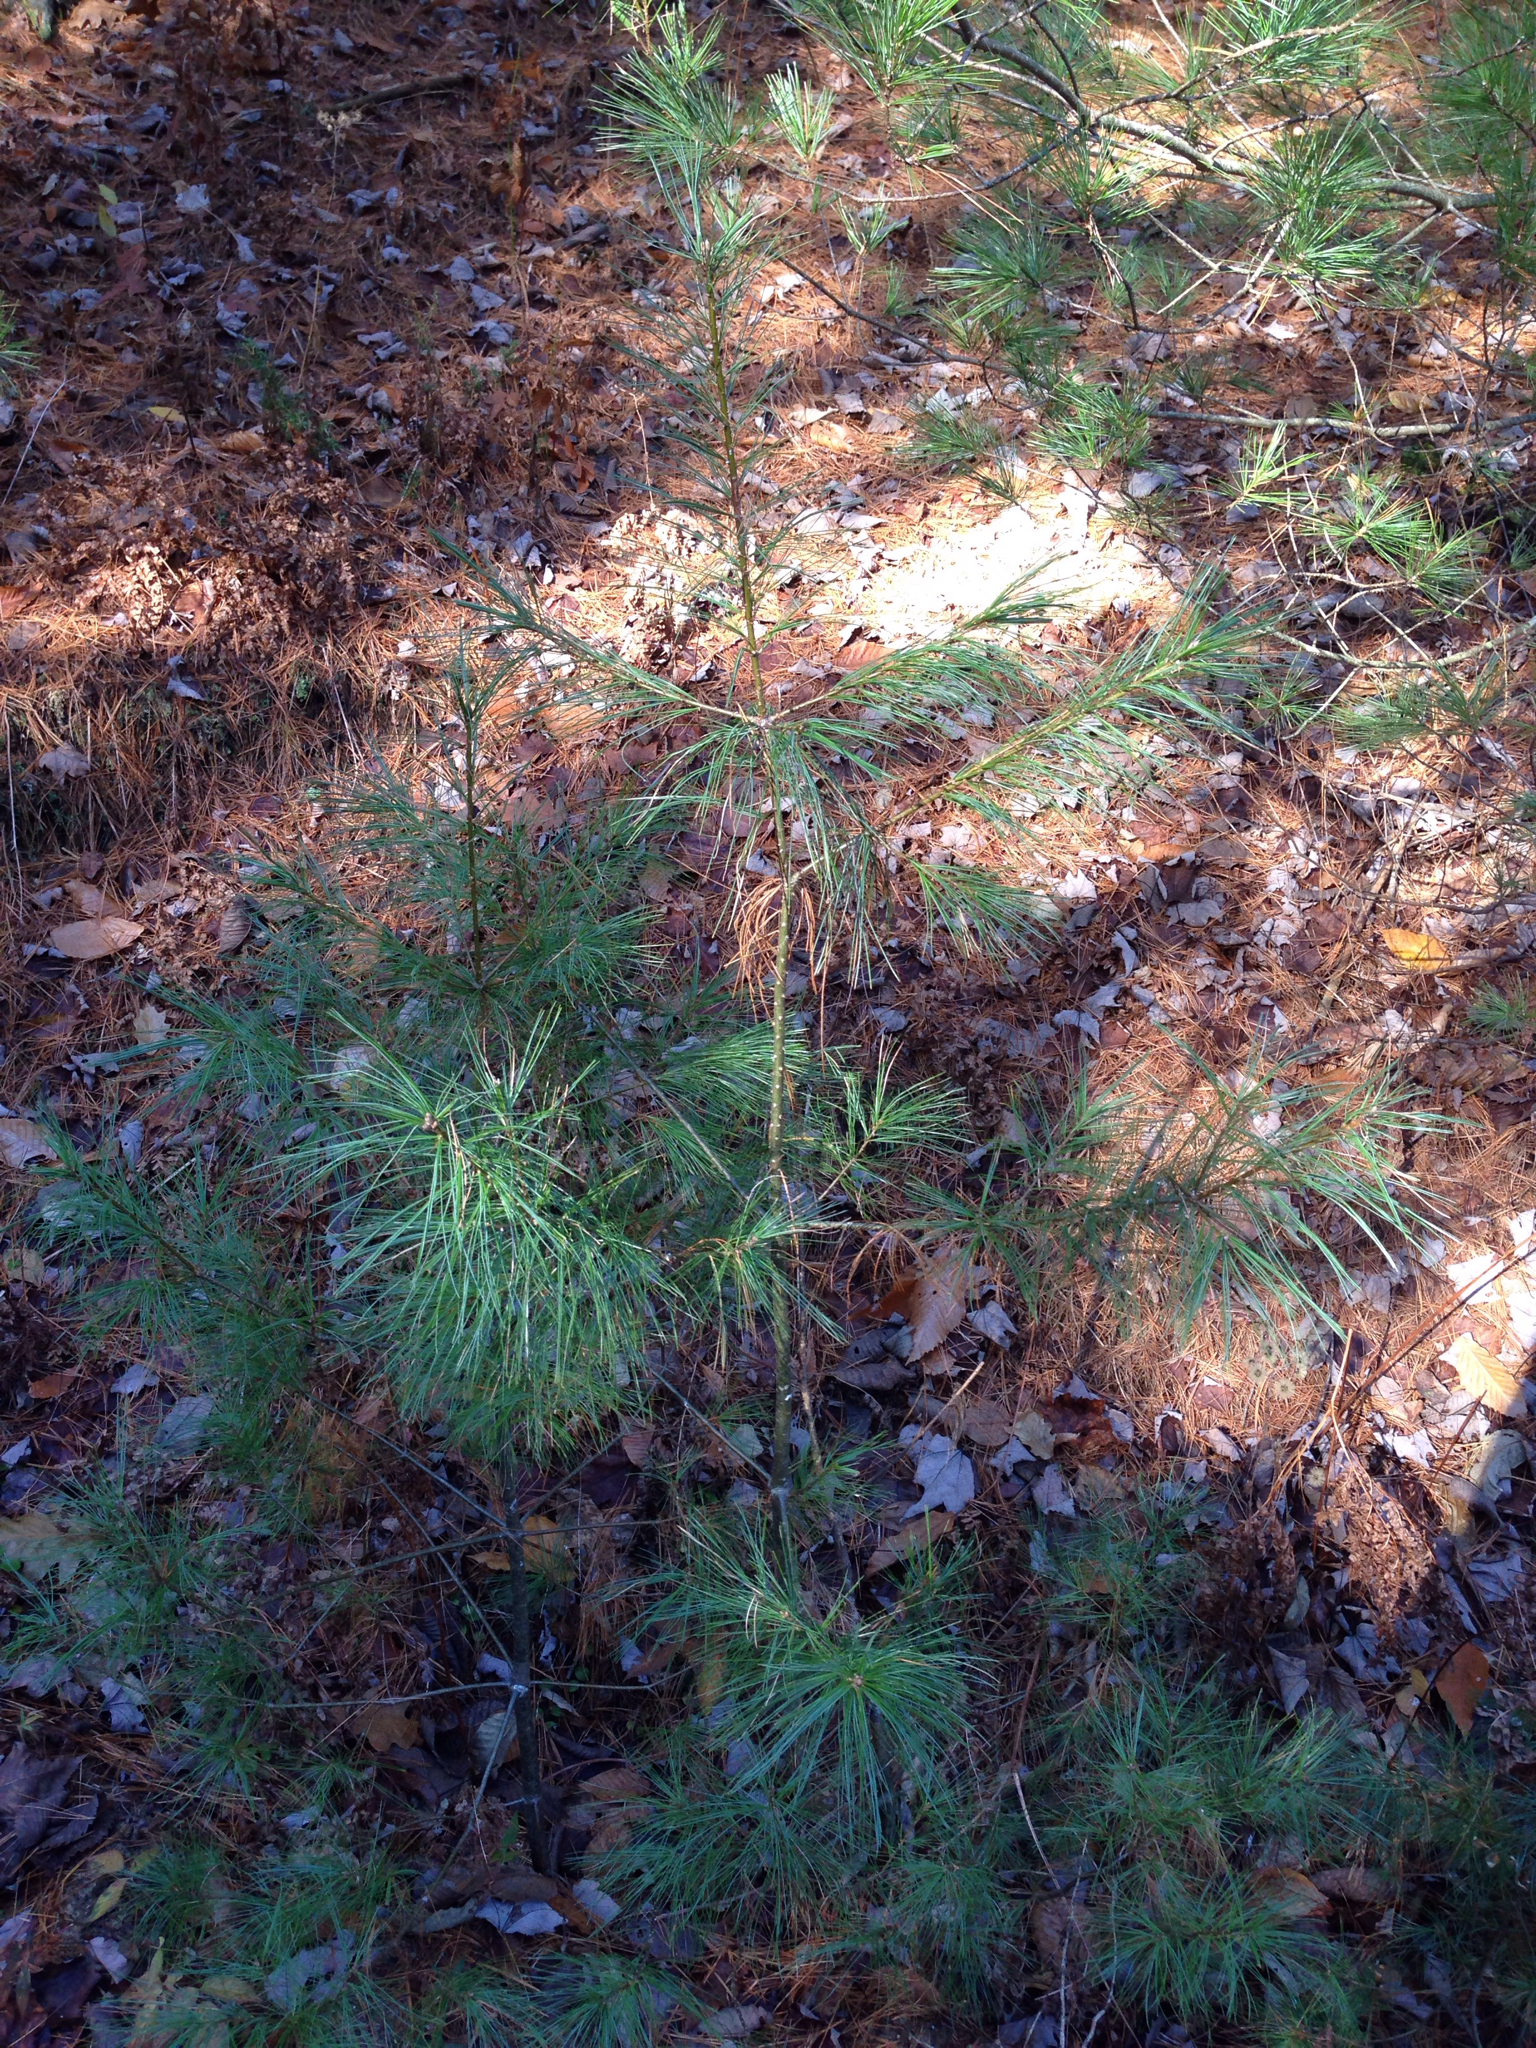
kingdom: Plantae
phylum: Tracheophyta
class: Pinopsida
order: Pinales
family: Pinaceae
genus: Pinus
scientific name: Pinus strobus
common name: Weymouth pine
